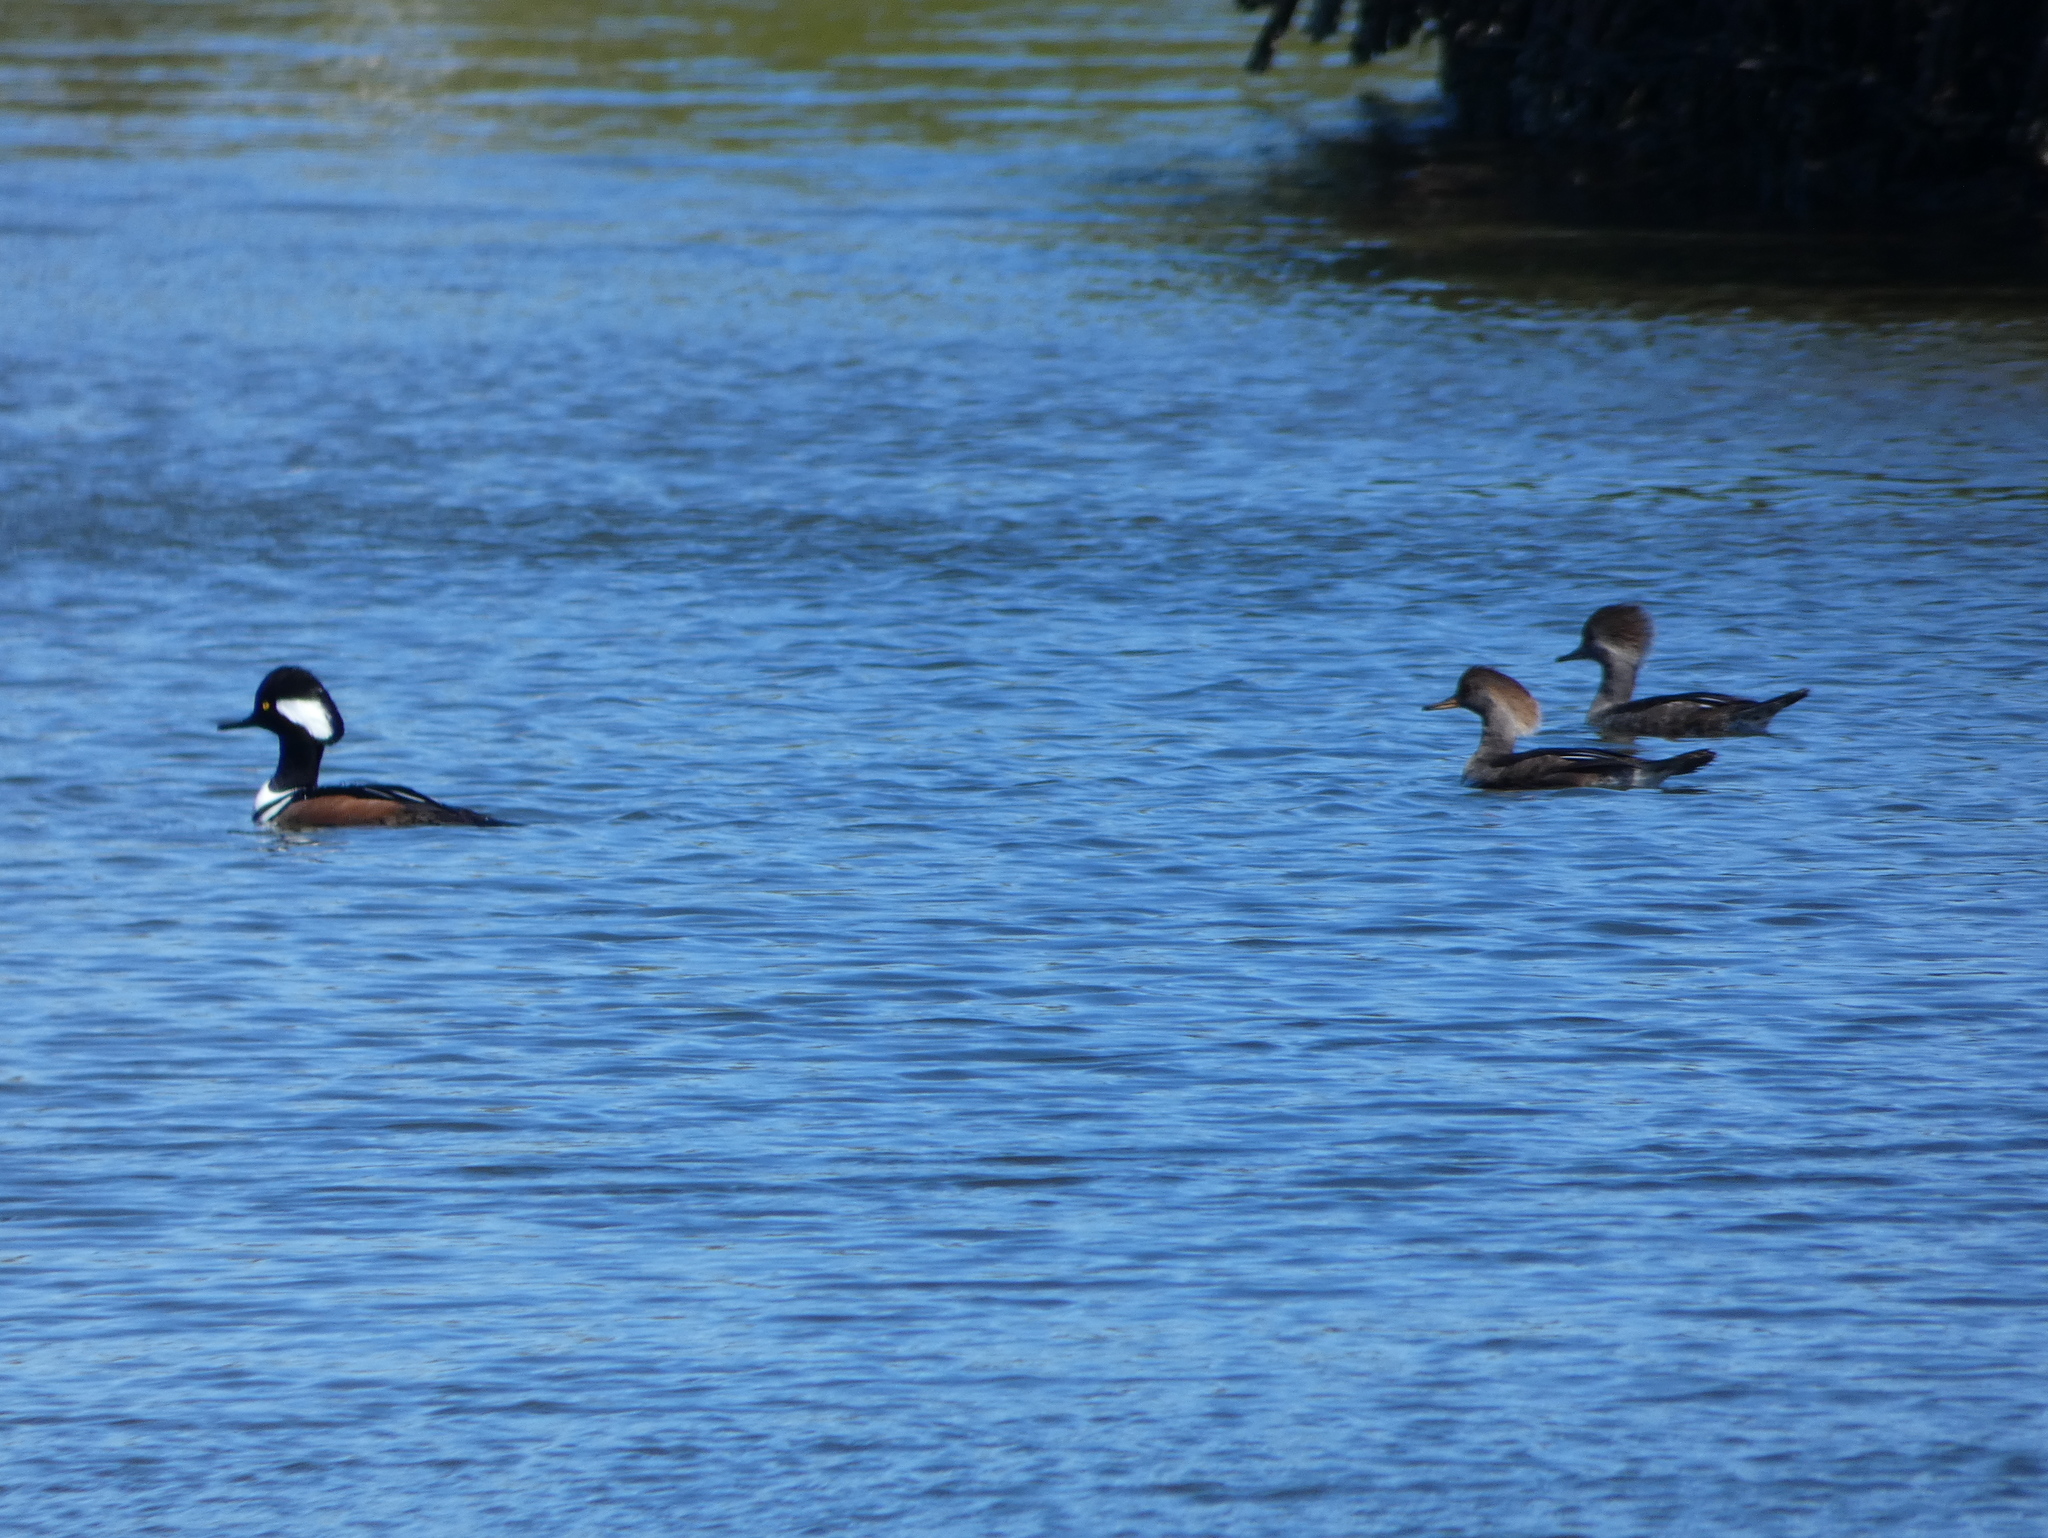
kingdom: Animalia
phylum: Chordata
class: Aves
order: Anseriformes
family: Anatidae
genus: Lophodytes
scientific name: Lophodytes cucullatus
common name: Hooded merganser
